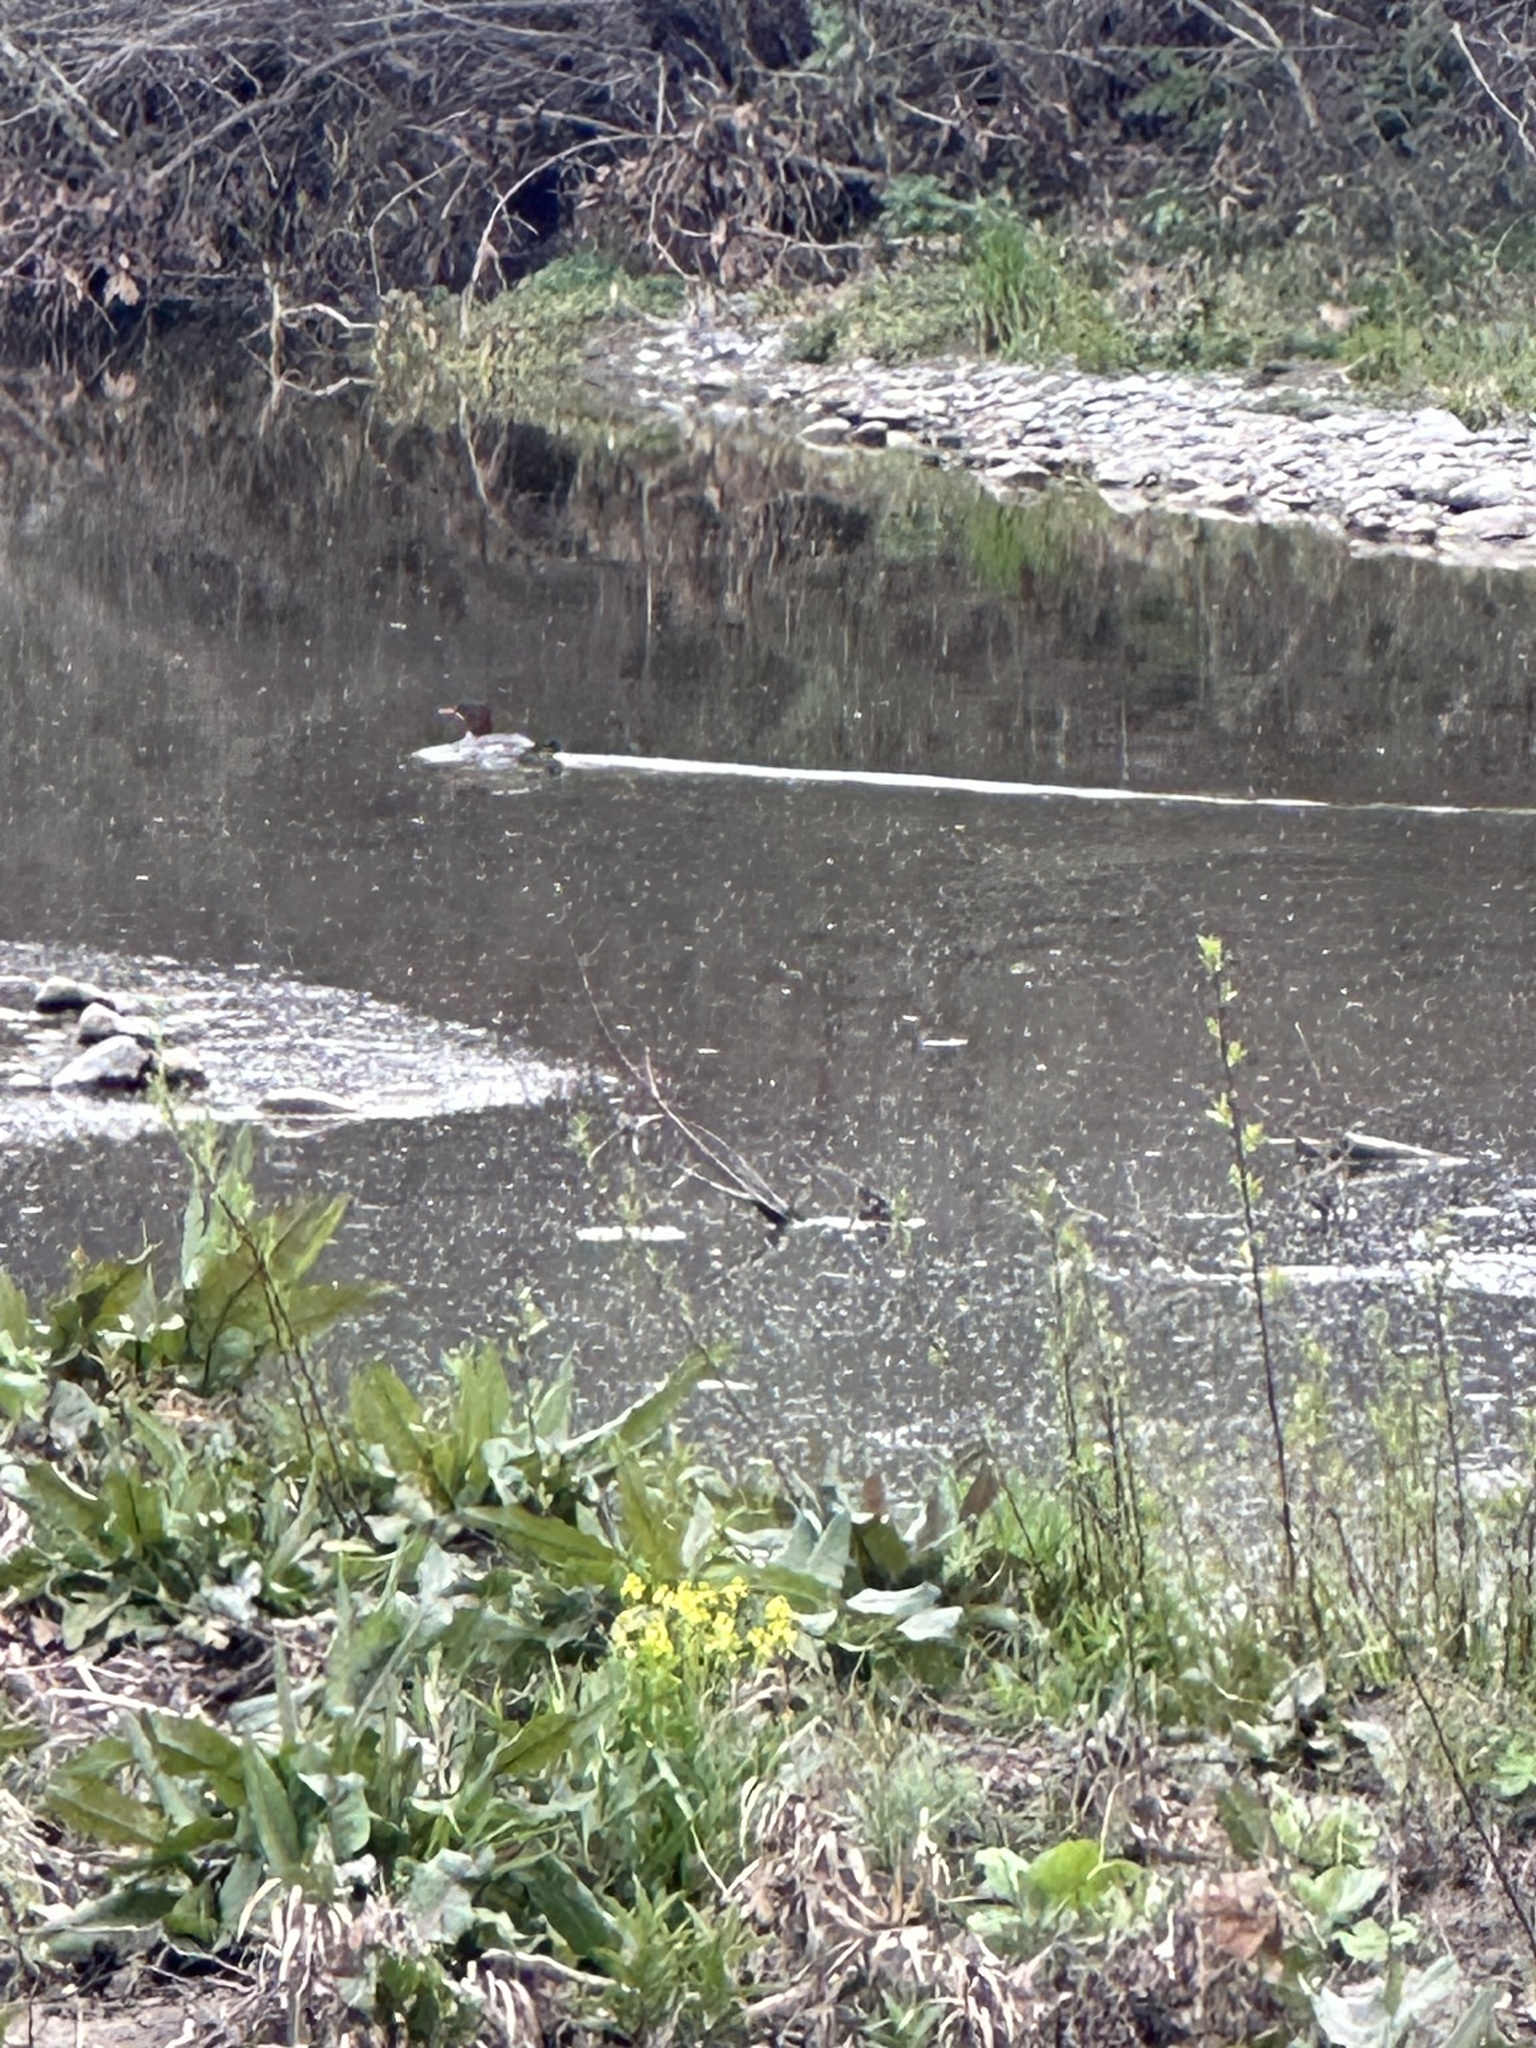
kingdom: Animalia
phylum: Chordata
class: Aves
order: Anseriformes
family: Anatidae
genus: Mergus
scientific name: Mergus merganser
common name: Common merganser
